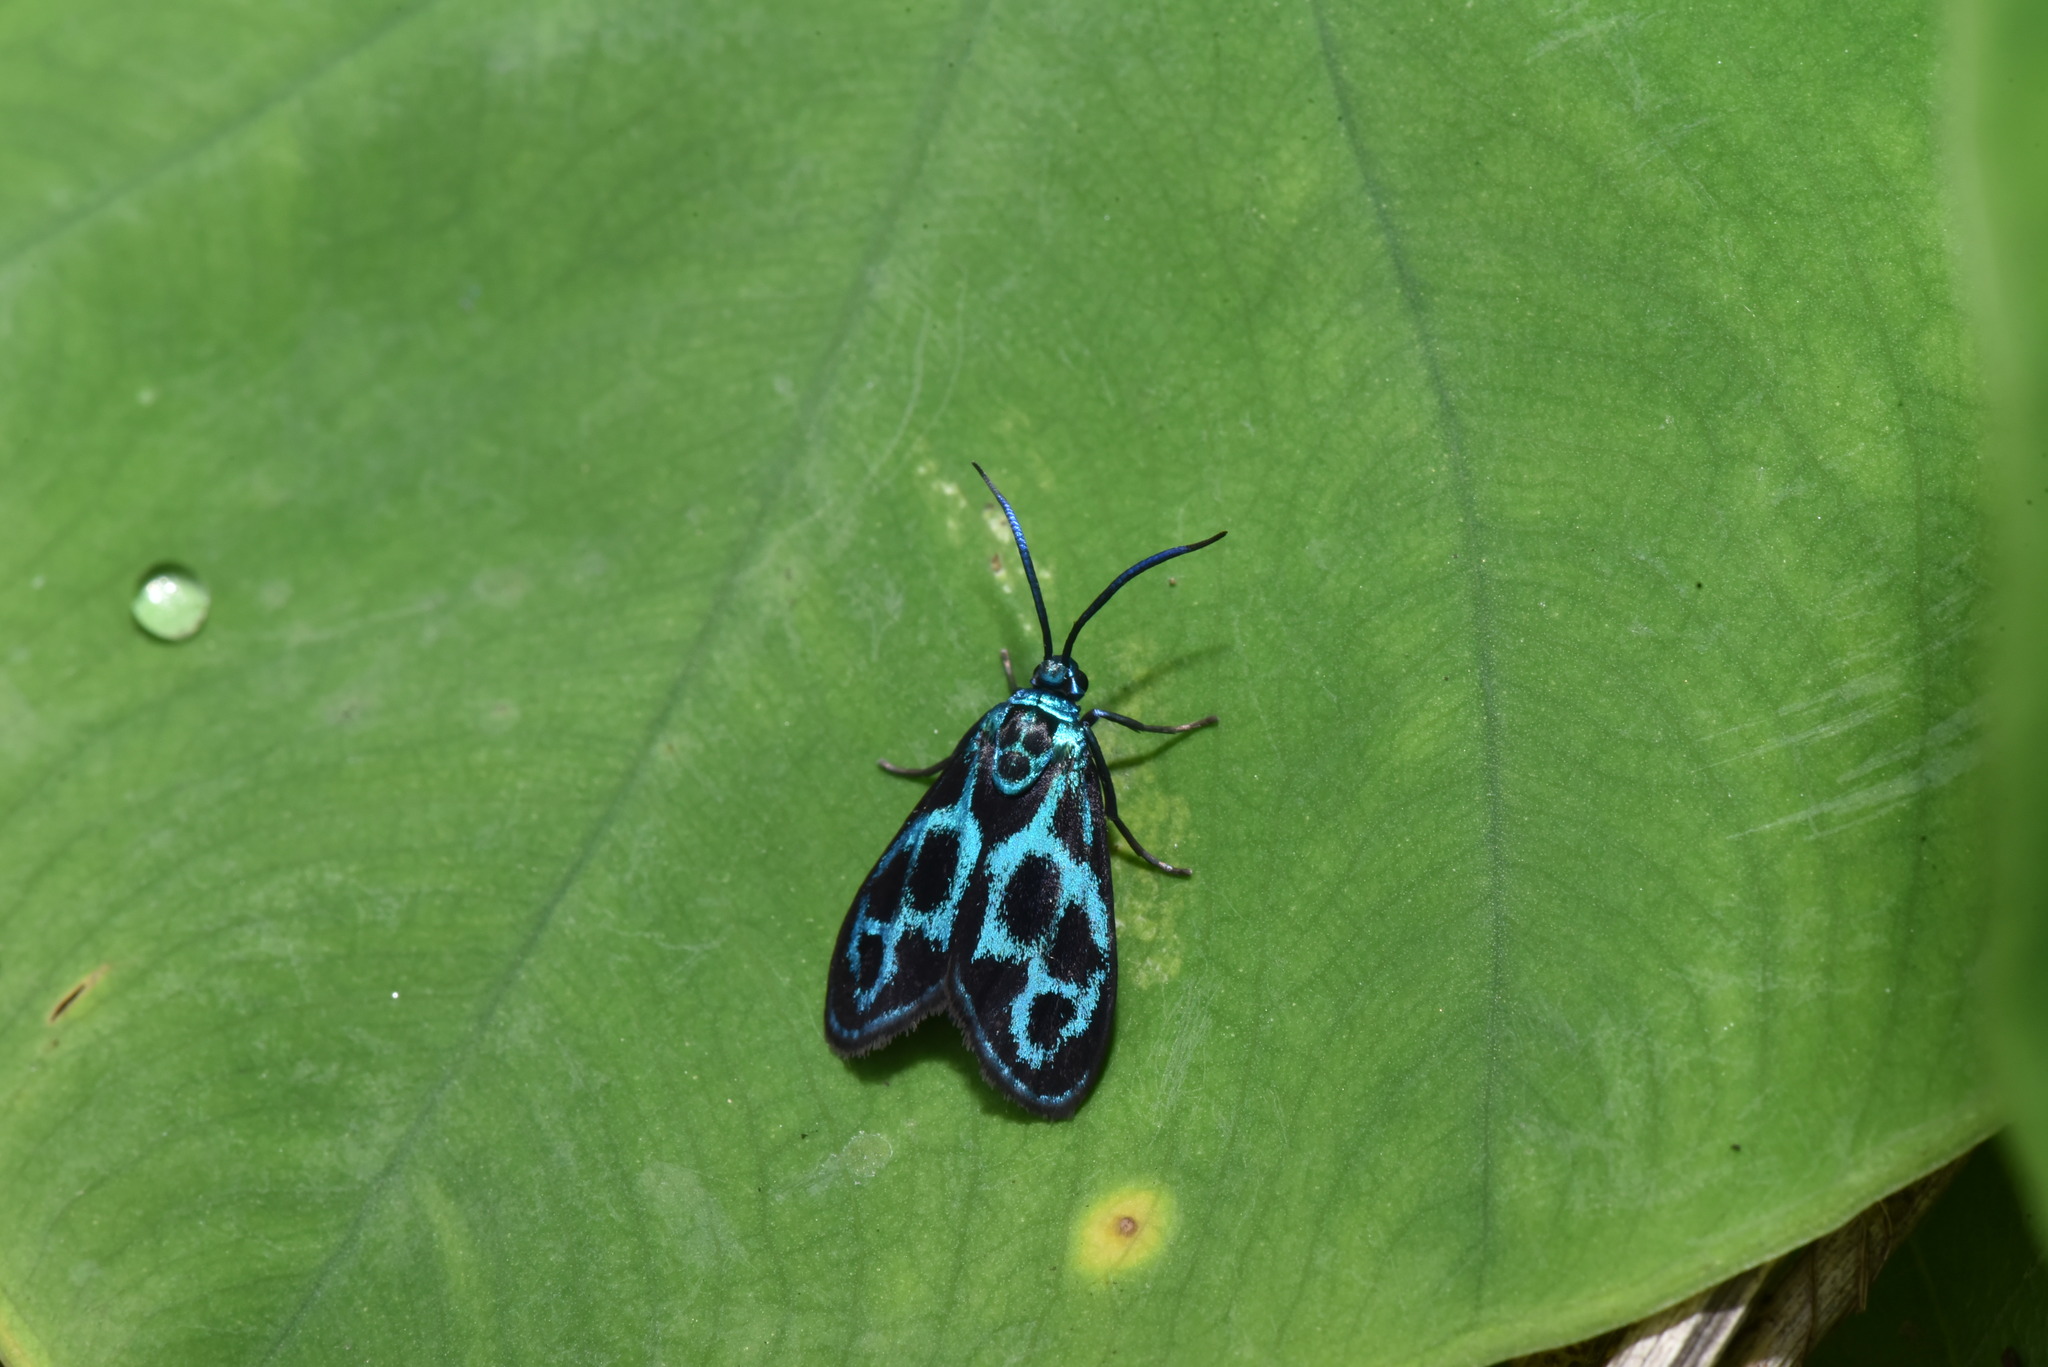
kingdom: Animalia
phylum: Arthropoda
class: Insecta
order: Lepidoptera
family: Zygaenidae
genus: Clelea
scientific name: Clelea simplicior
